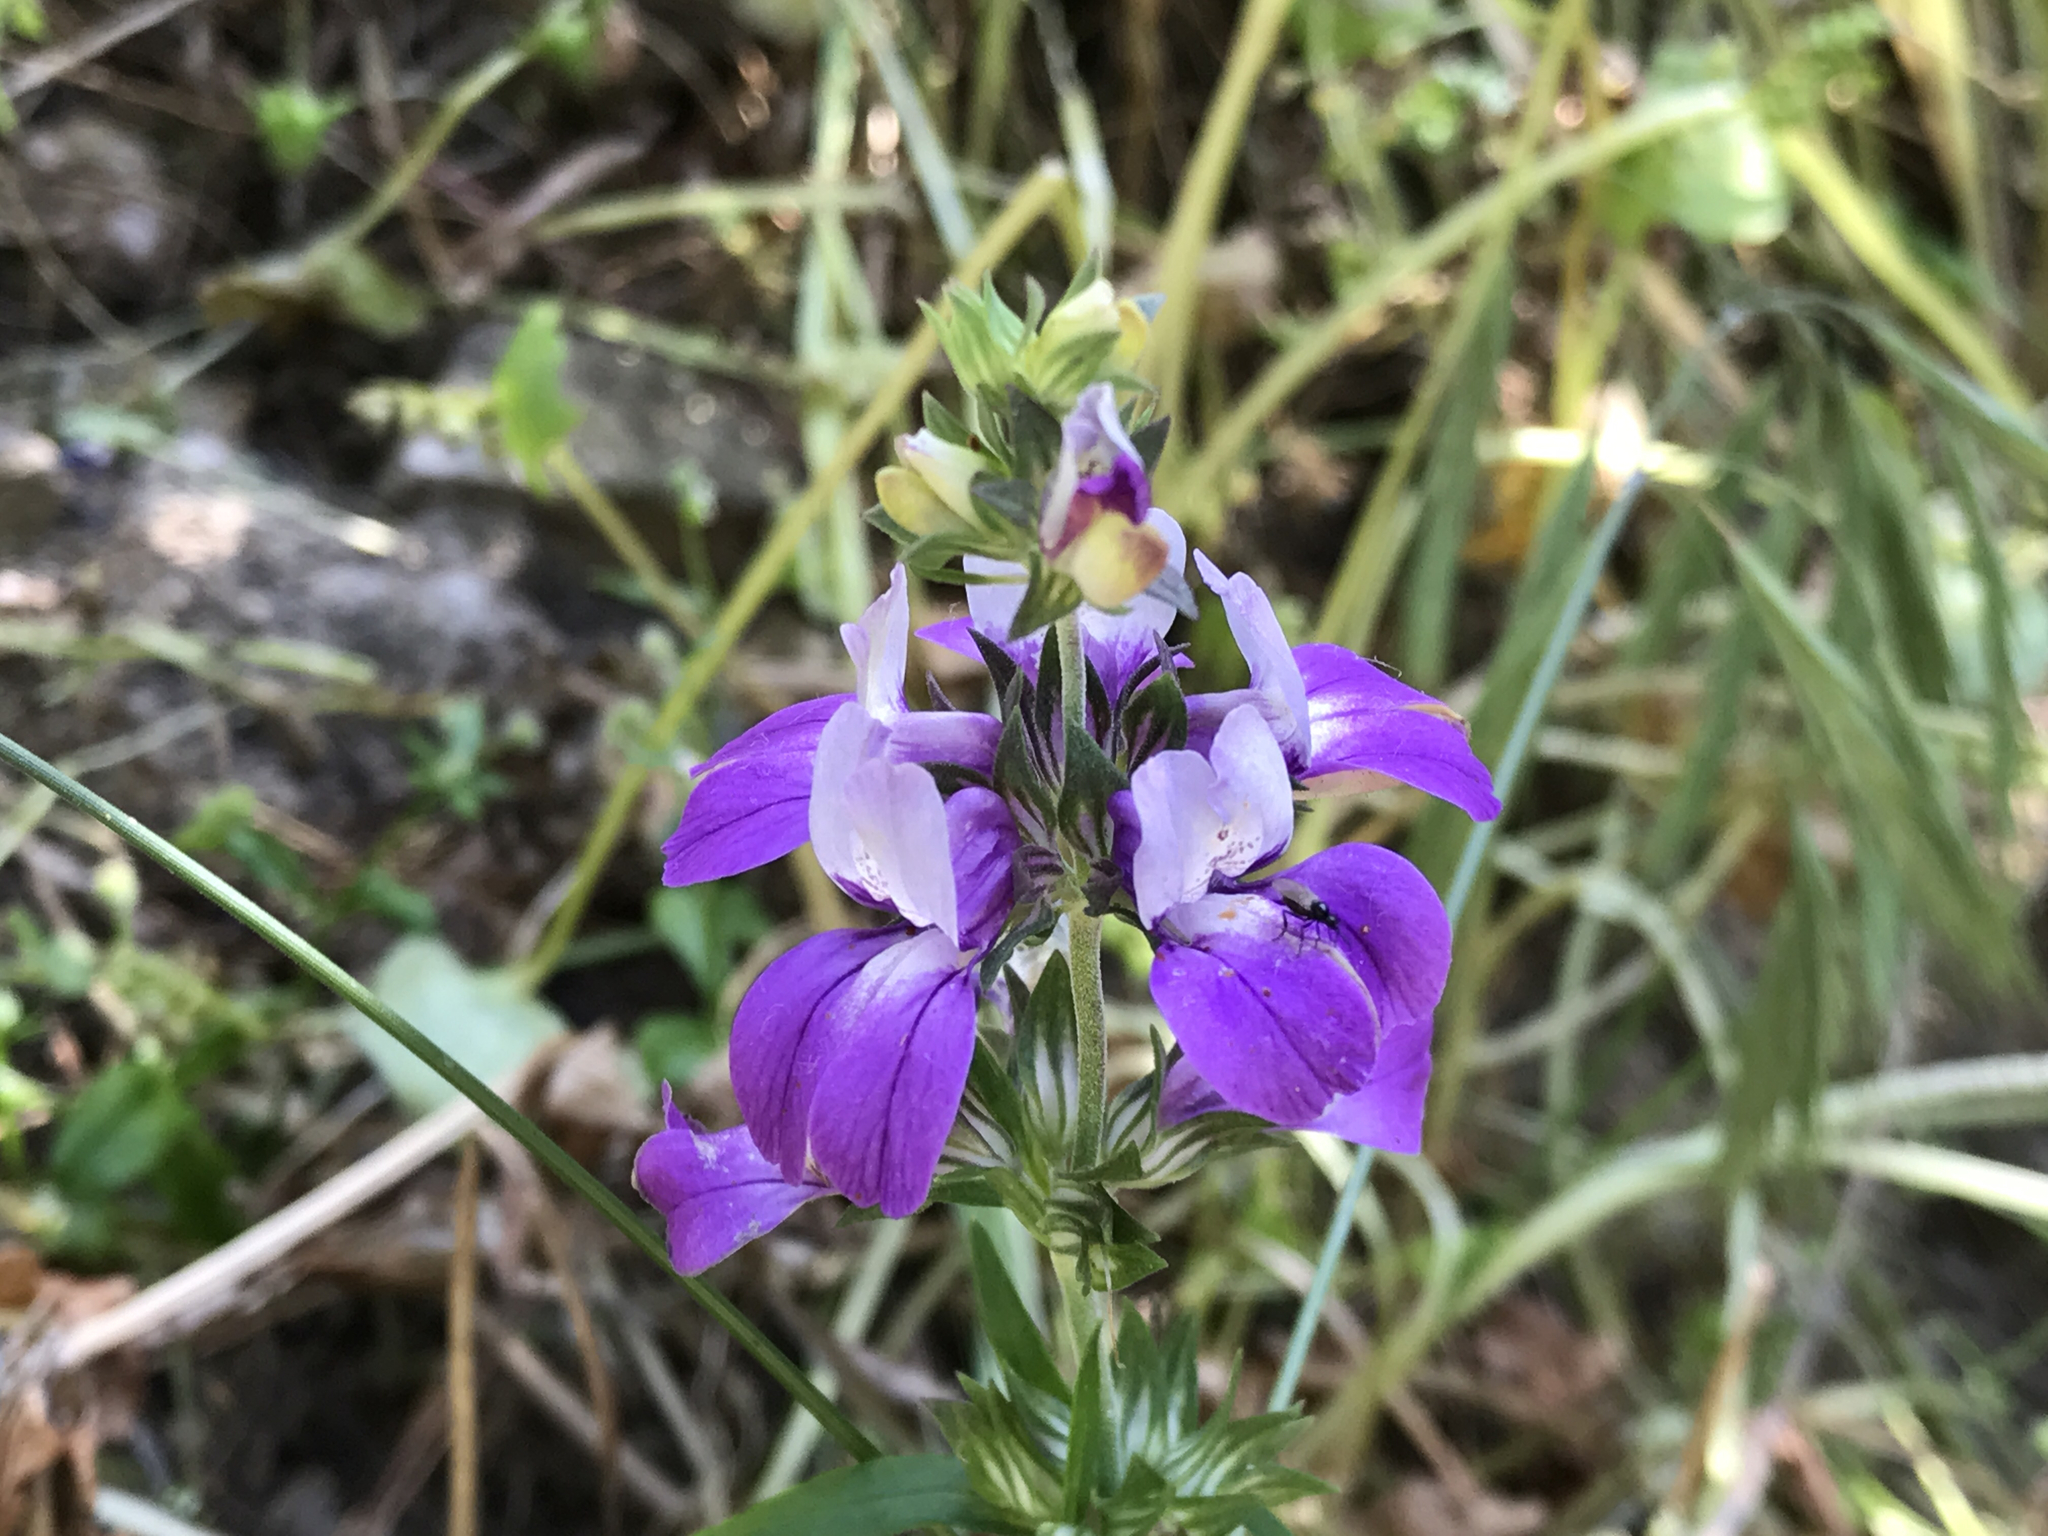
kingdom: Plantae
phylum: Tracheophyta
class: Magnoliopsida
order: Lamiales
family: Plantaginaceae
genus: Collinsia
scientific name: Collinsia heterophylla
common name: Chinese-houses
